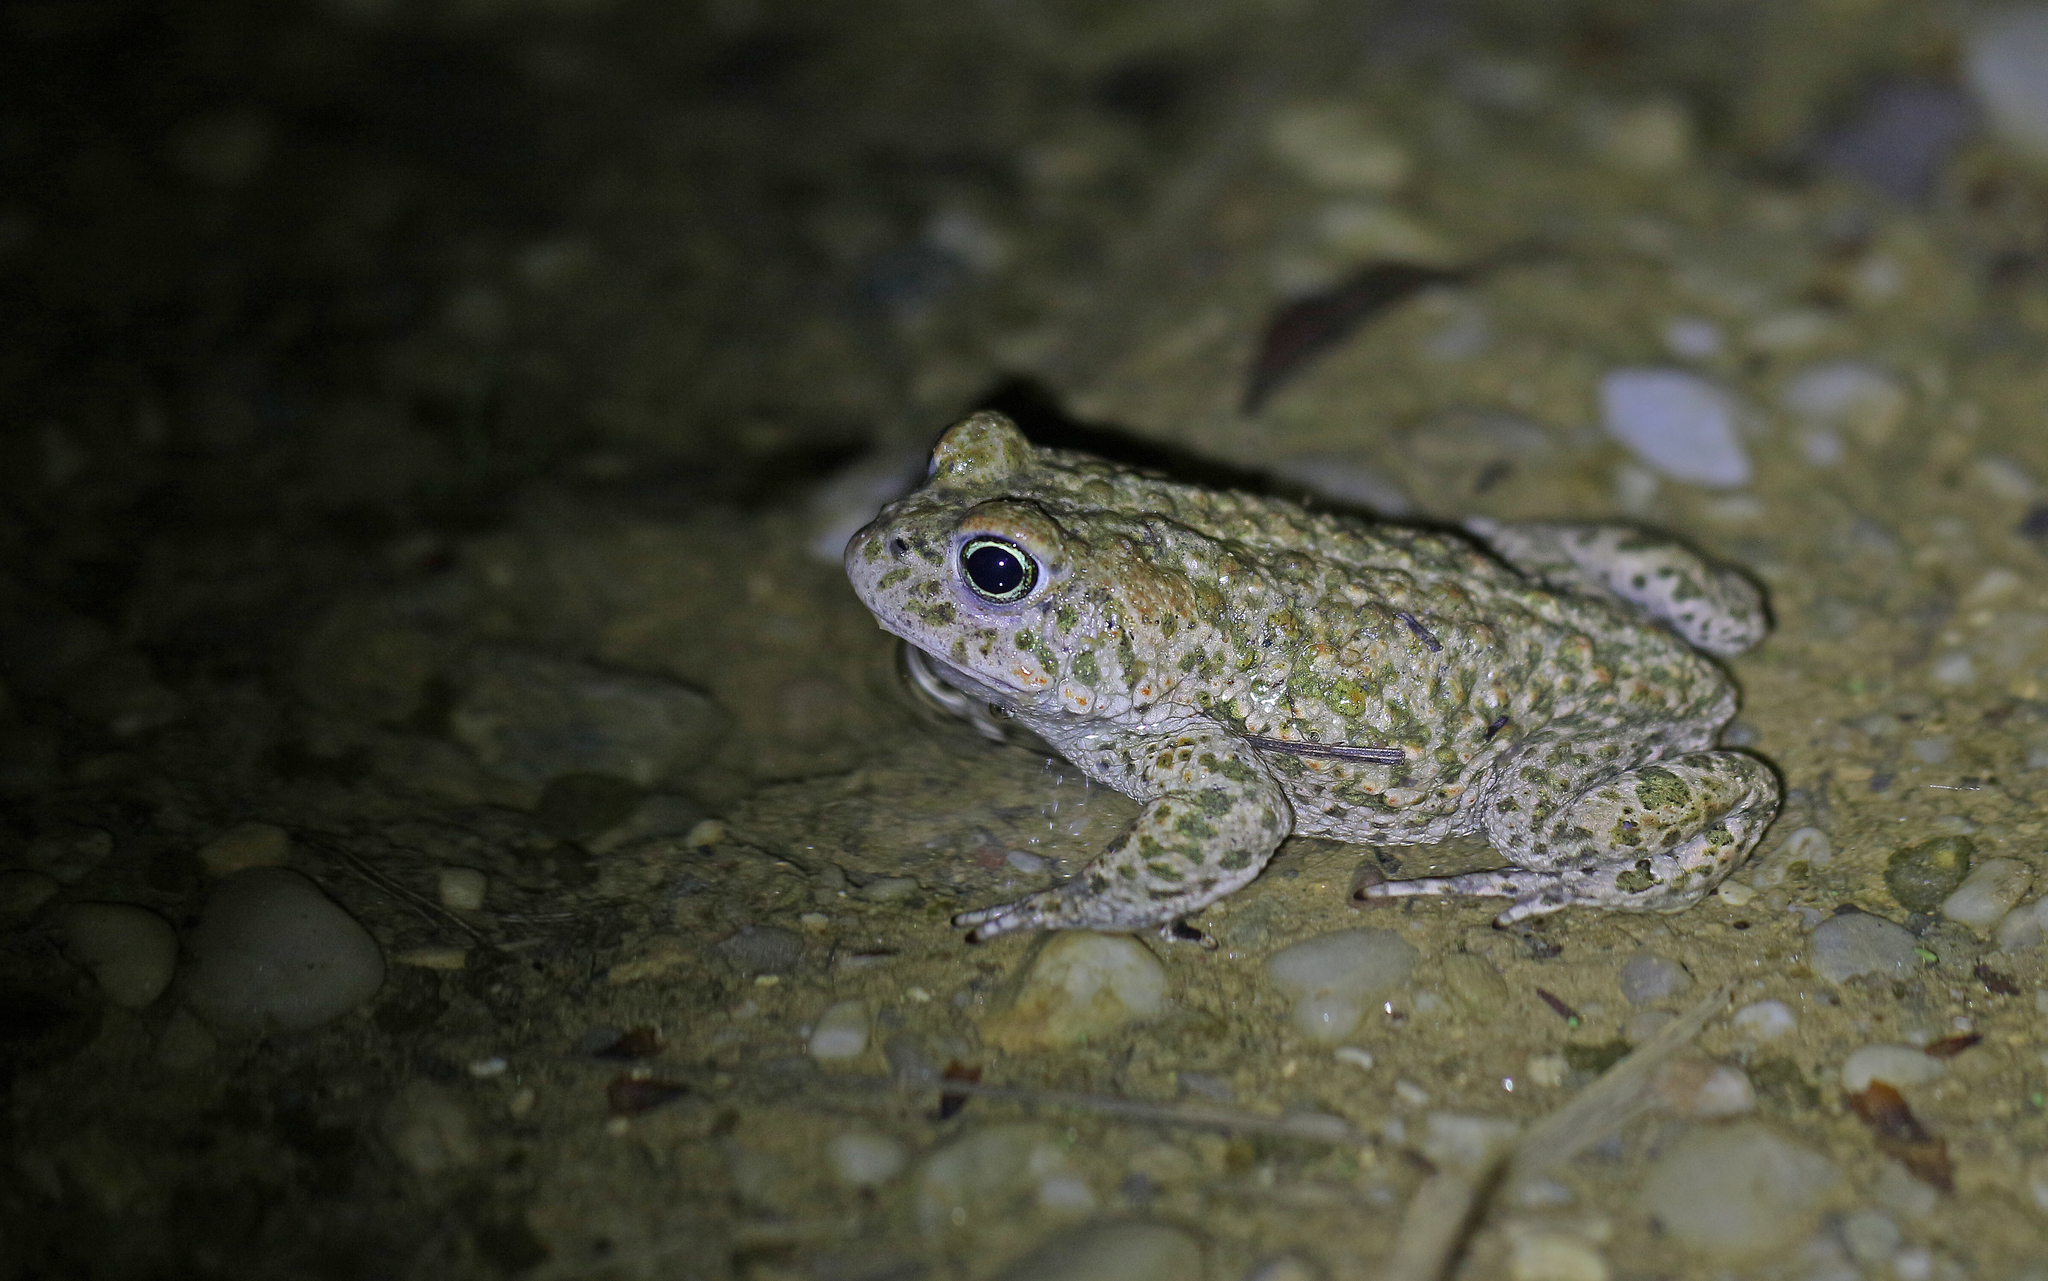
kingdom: Animalia
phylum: Chordata
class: Amphibia
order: Anura
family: Bufonidae
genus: Epidalea
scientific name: Epidalea calamita
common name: Natterjack toad
